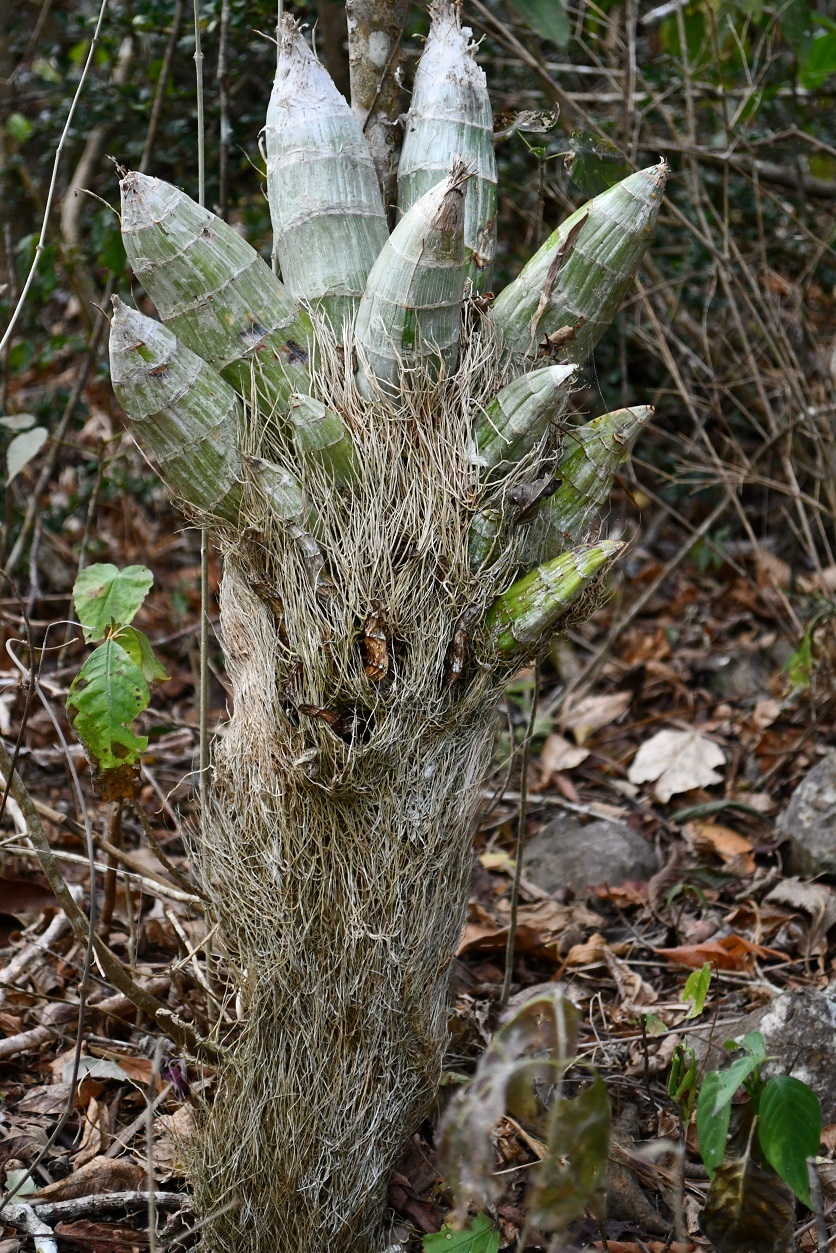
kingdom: Plantae
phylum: Tracheophyta
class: Liliopsida
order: Asparagales
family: Orchidaceae
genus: Catasetum
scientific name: Catasetum integerrimum
